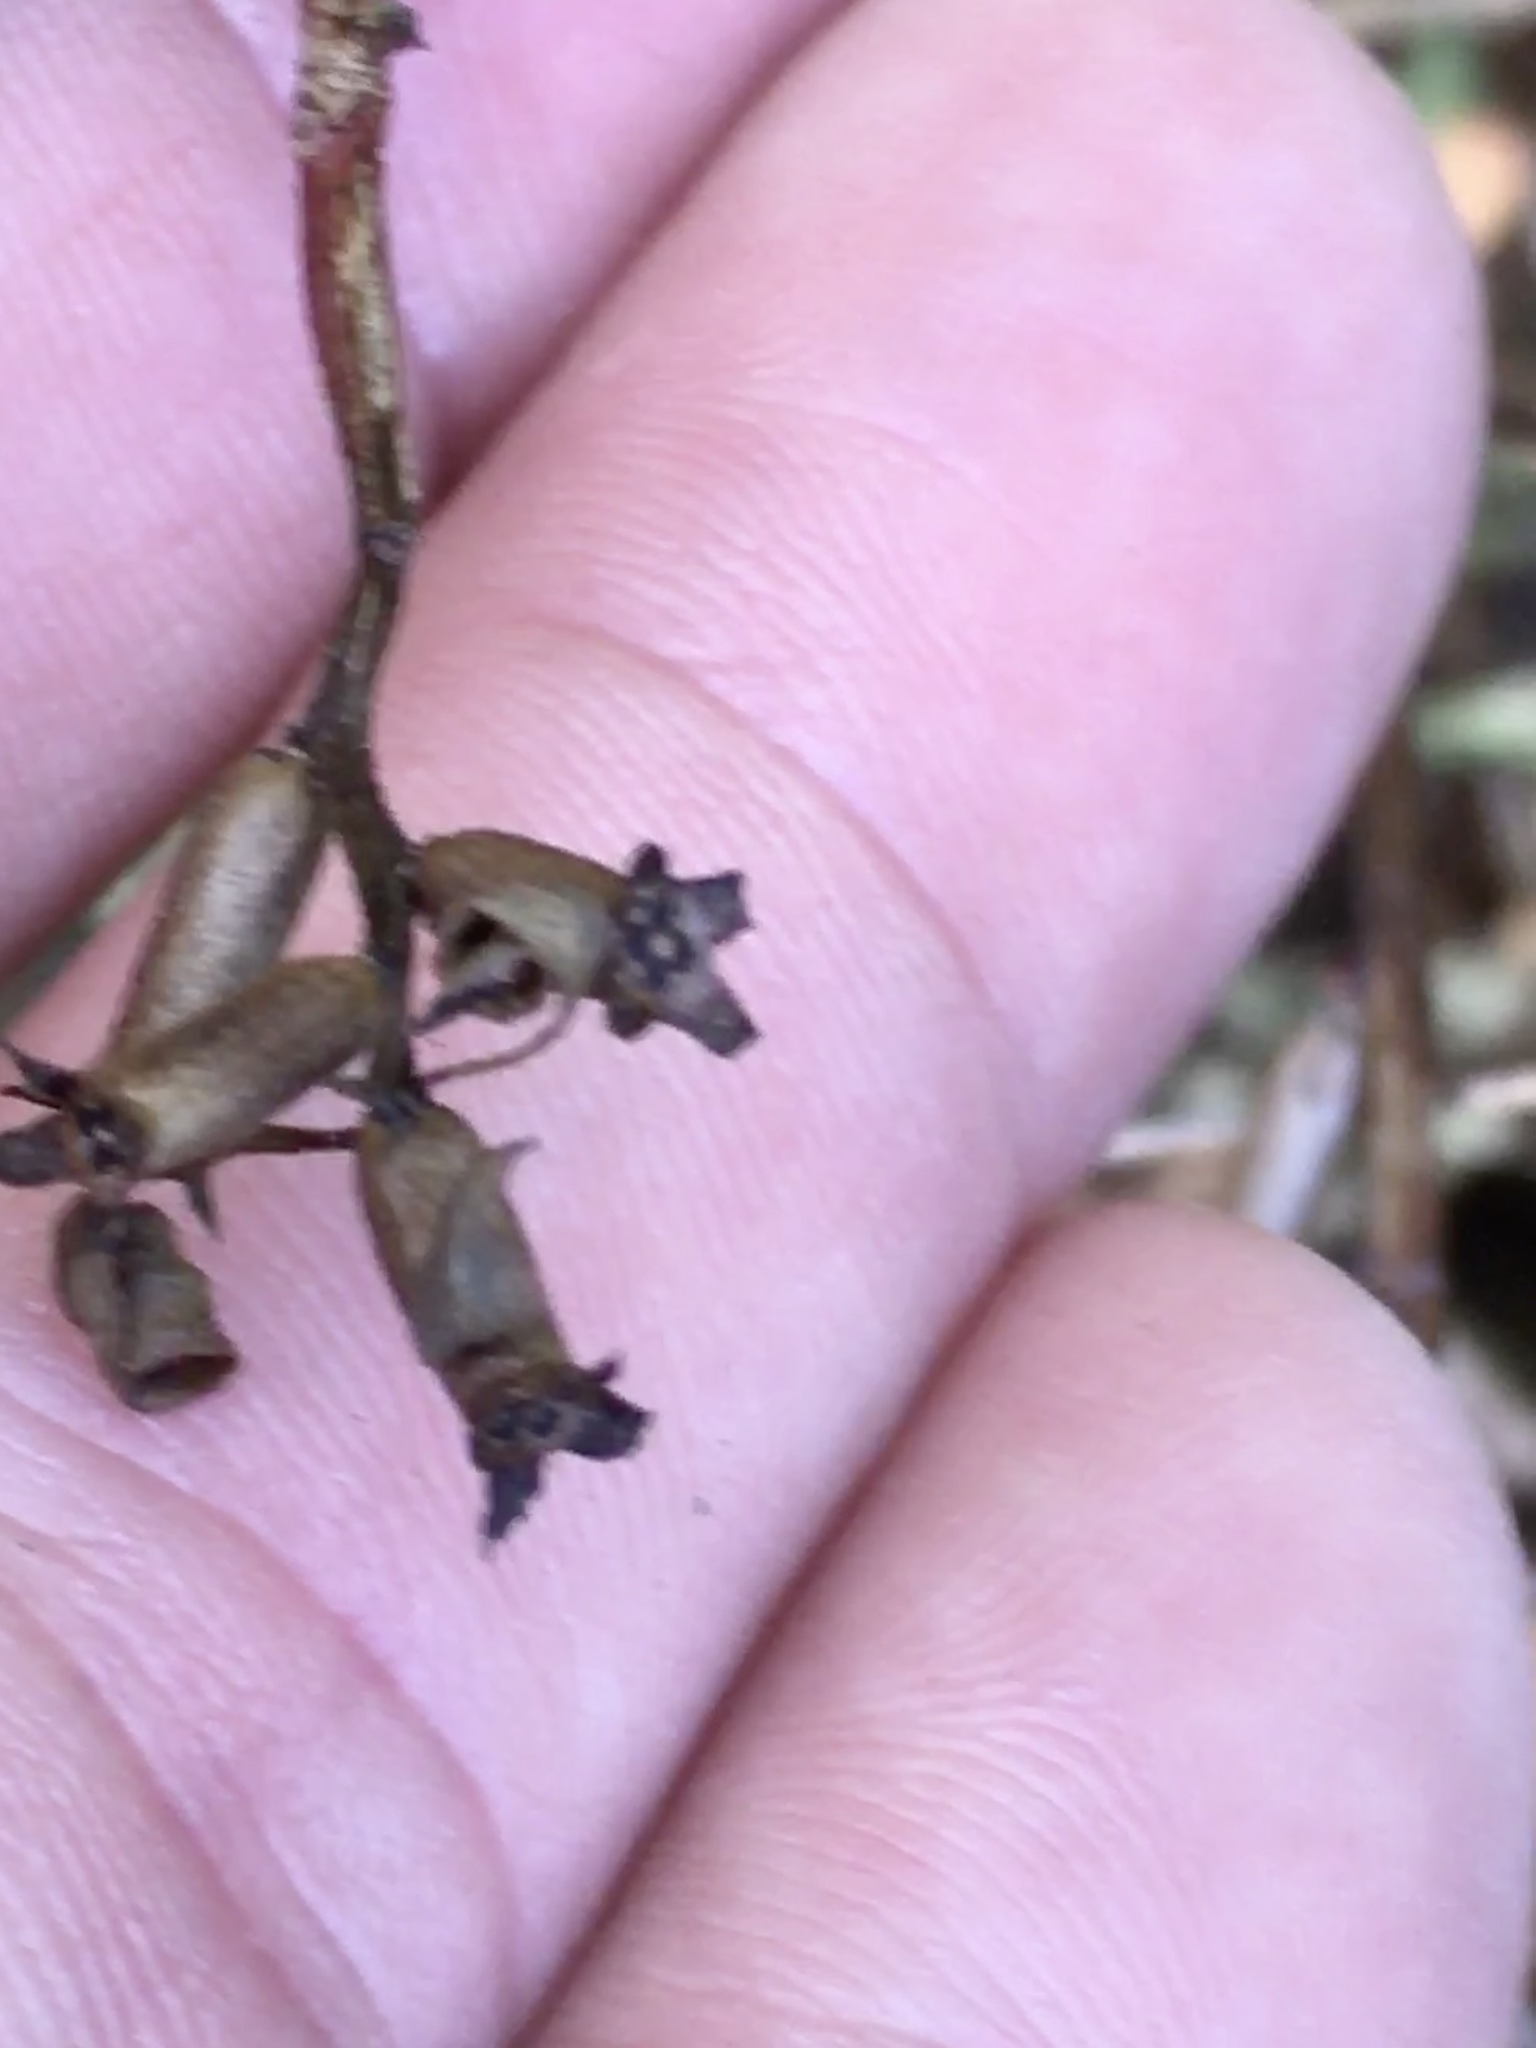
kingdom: Plantae
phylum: Tracheophyta
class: Magnoliopsida
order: Myrtales
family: Onagraceae
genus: Ludwigia
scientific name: Ludwigia decurrens
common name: Winged water-primrose
